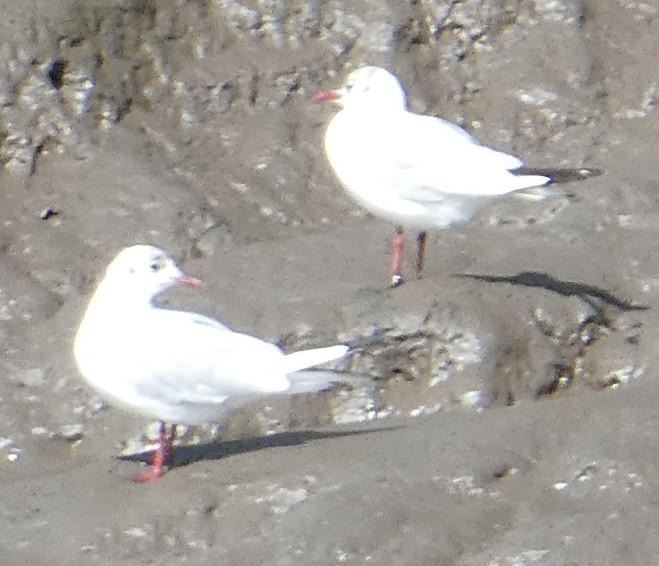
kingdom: Animalia
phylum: Chordata
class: Aves
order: Charadriiformes
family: Laridae
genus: Chroicocephalus
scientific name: Chroicocephalus ridibundus
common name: Black-headed gull
